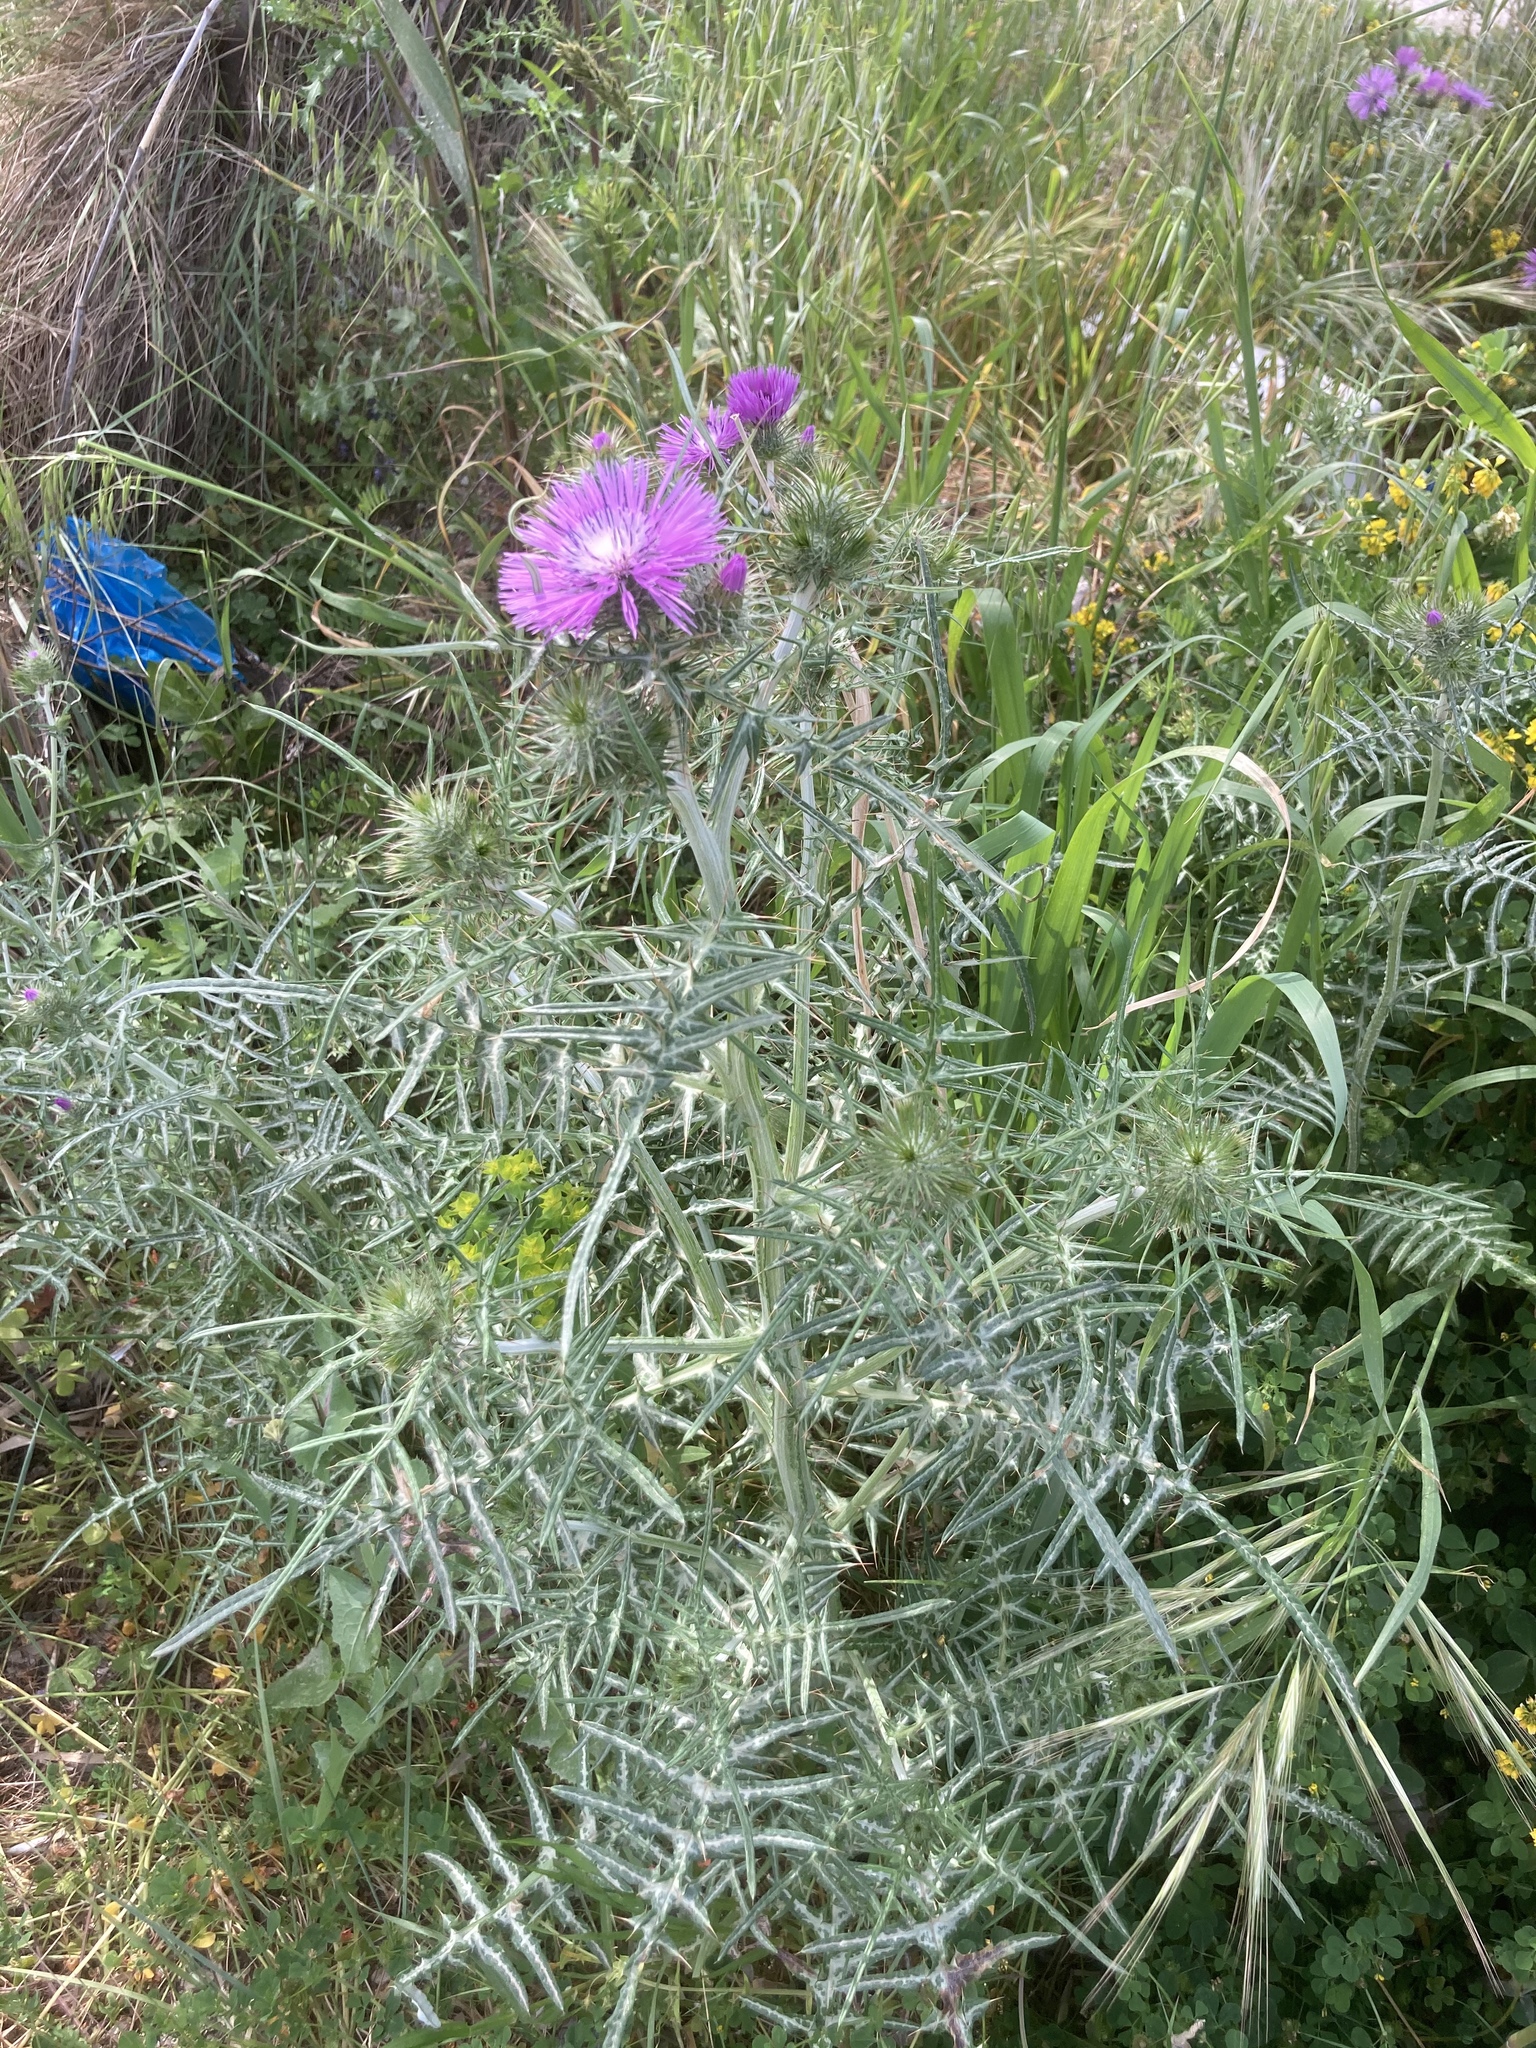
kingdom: Plantae
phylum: Tracheophyta
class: Magnoliopsida
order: Asterales
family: Asteraceae
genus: Galactites
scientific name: Galactites tomentosa
